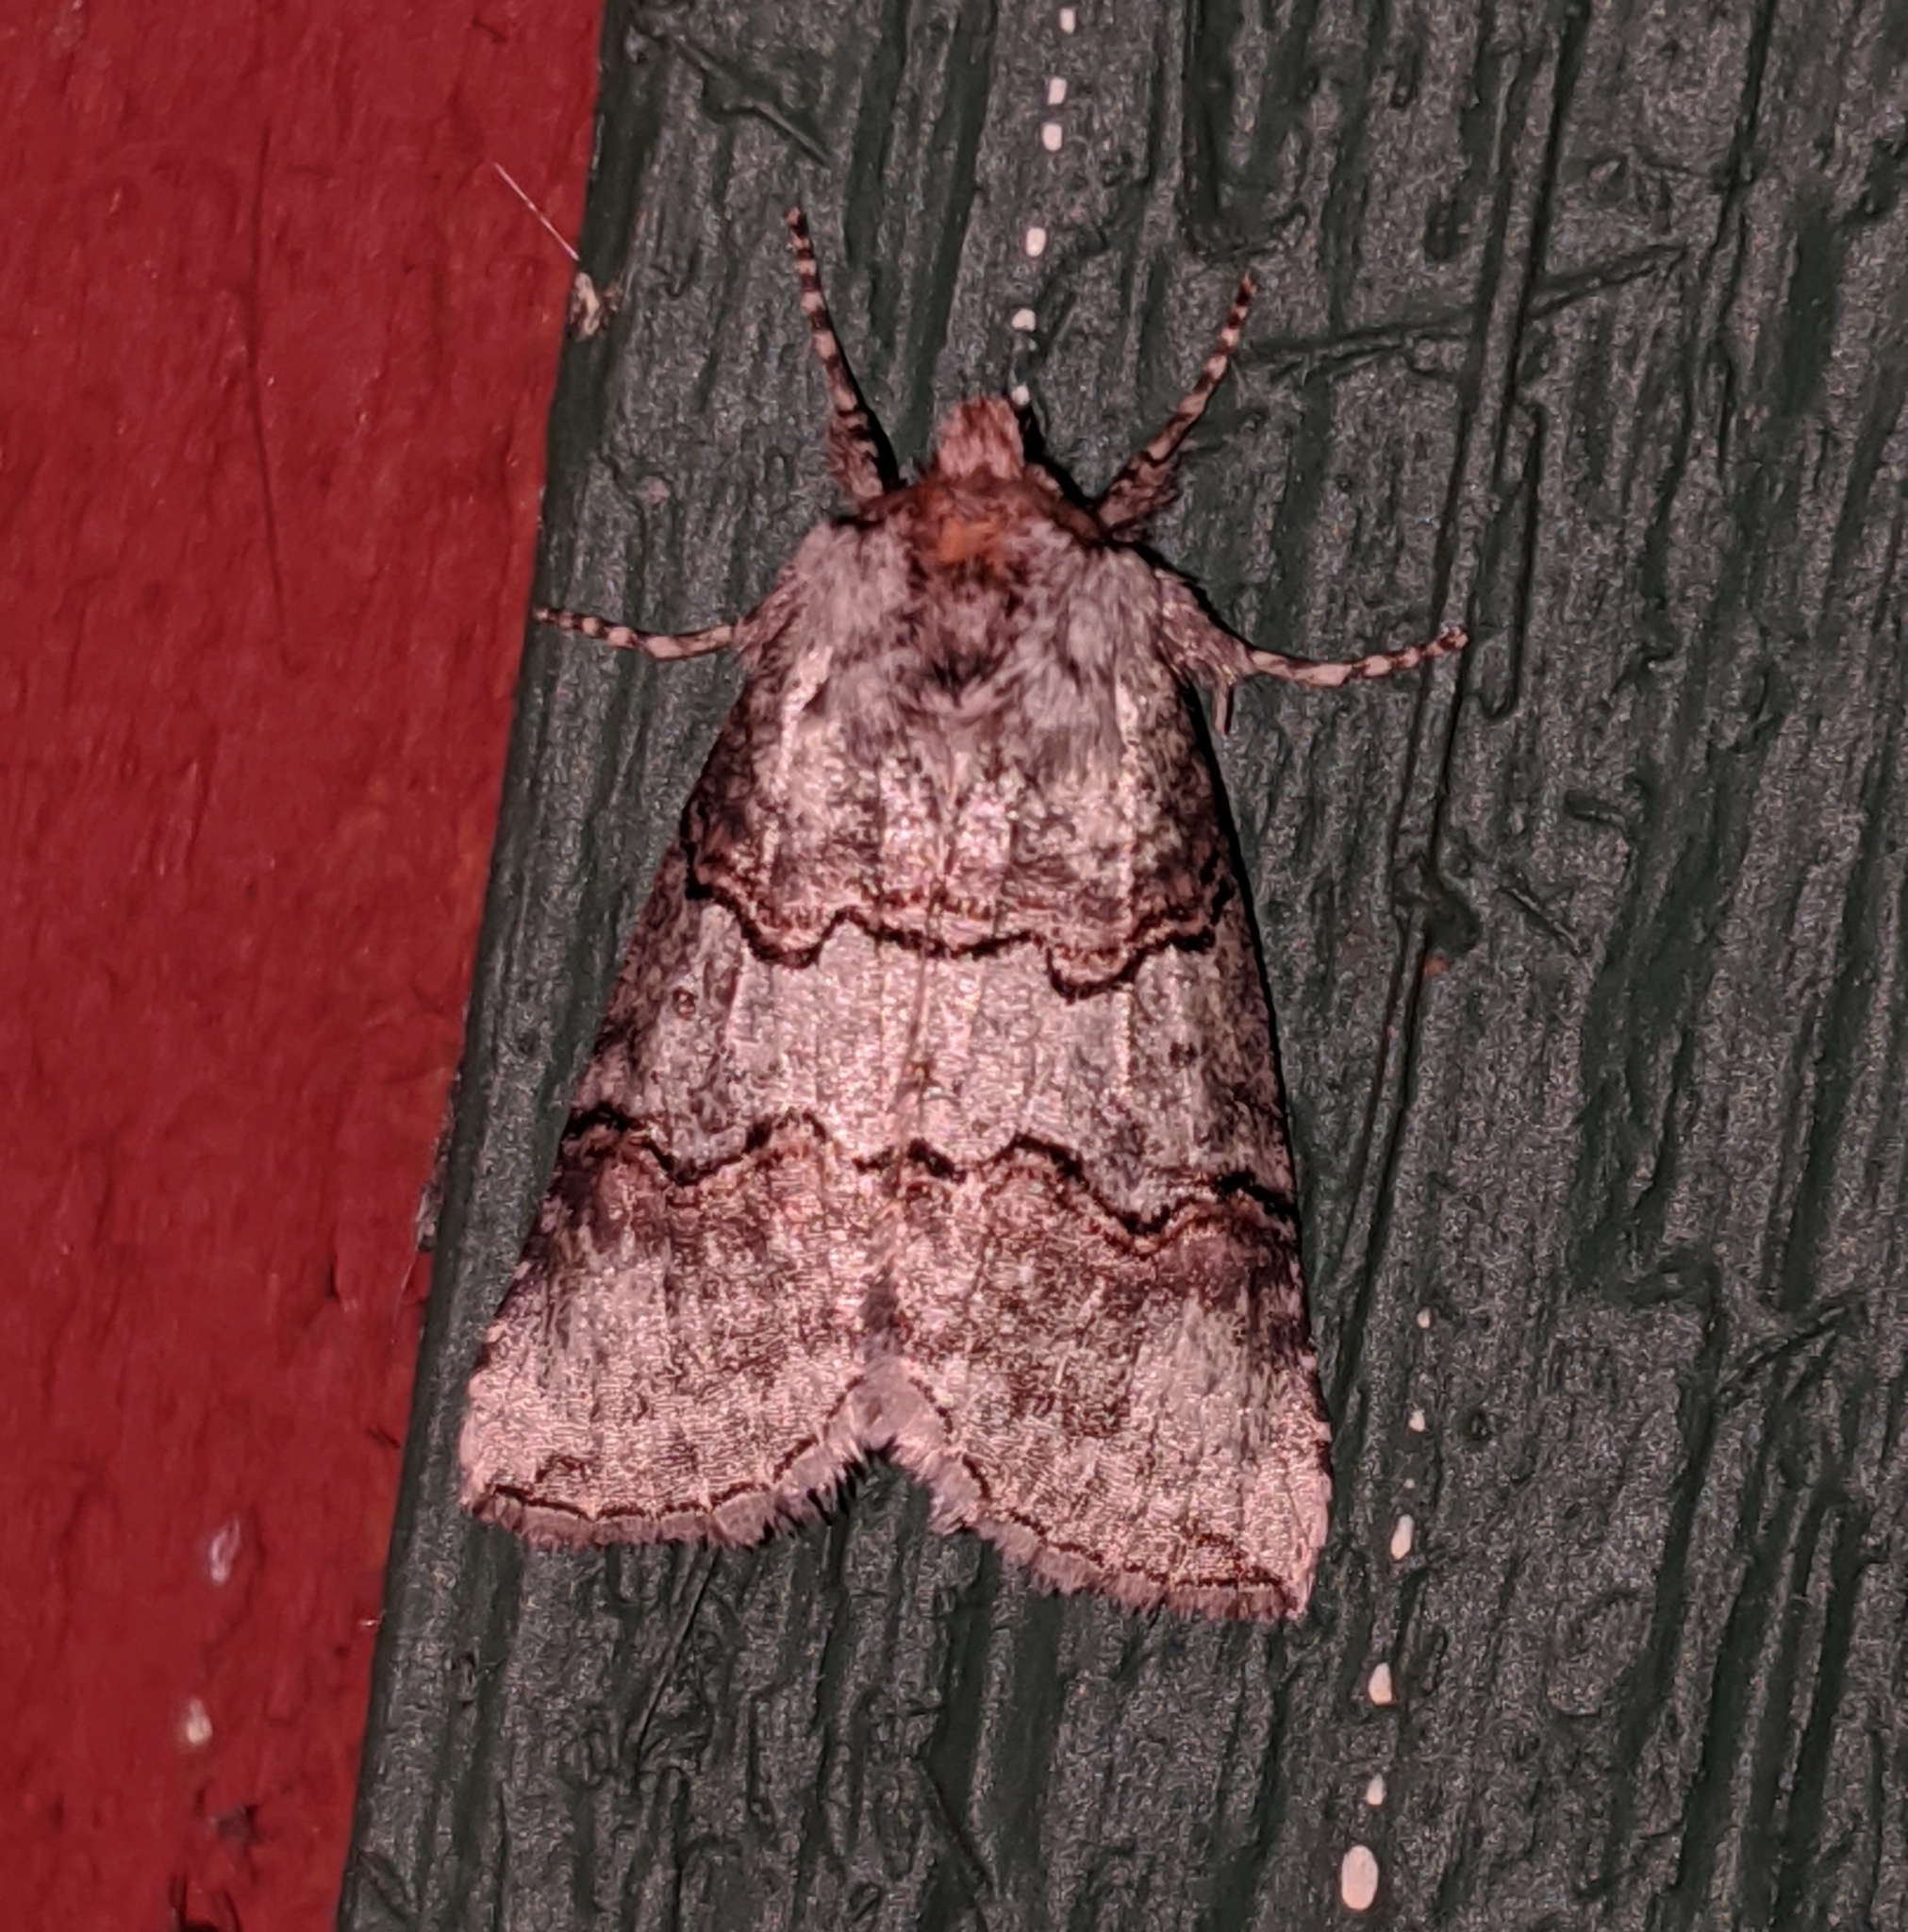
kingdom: Animalia
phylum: Arthropoda
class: Insecta
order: Lepidoptera
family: Drepanidae
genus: Ceranemota
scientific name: Ceranemota fasciata
